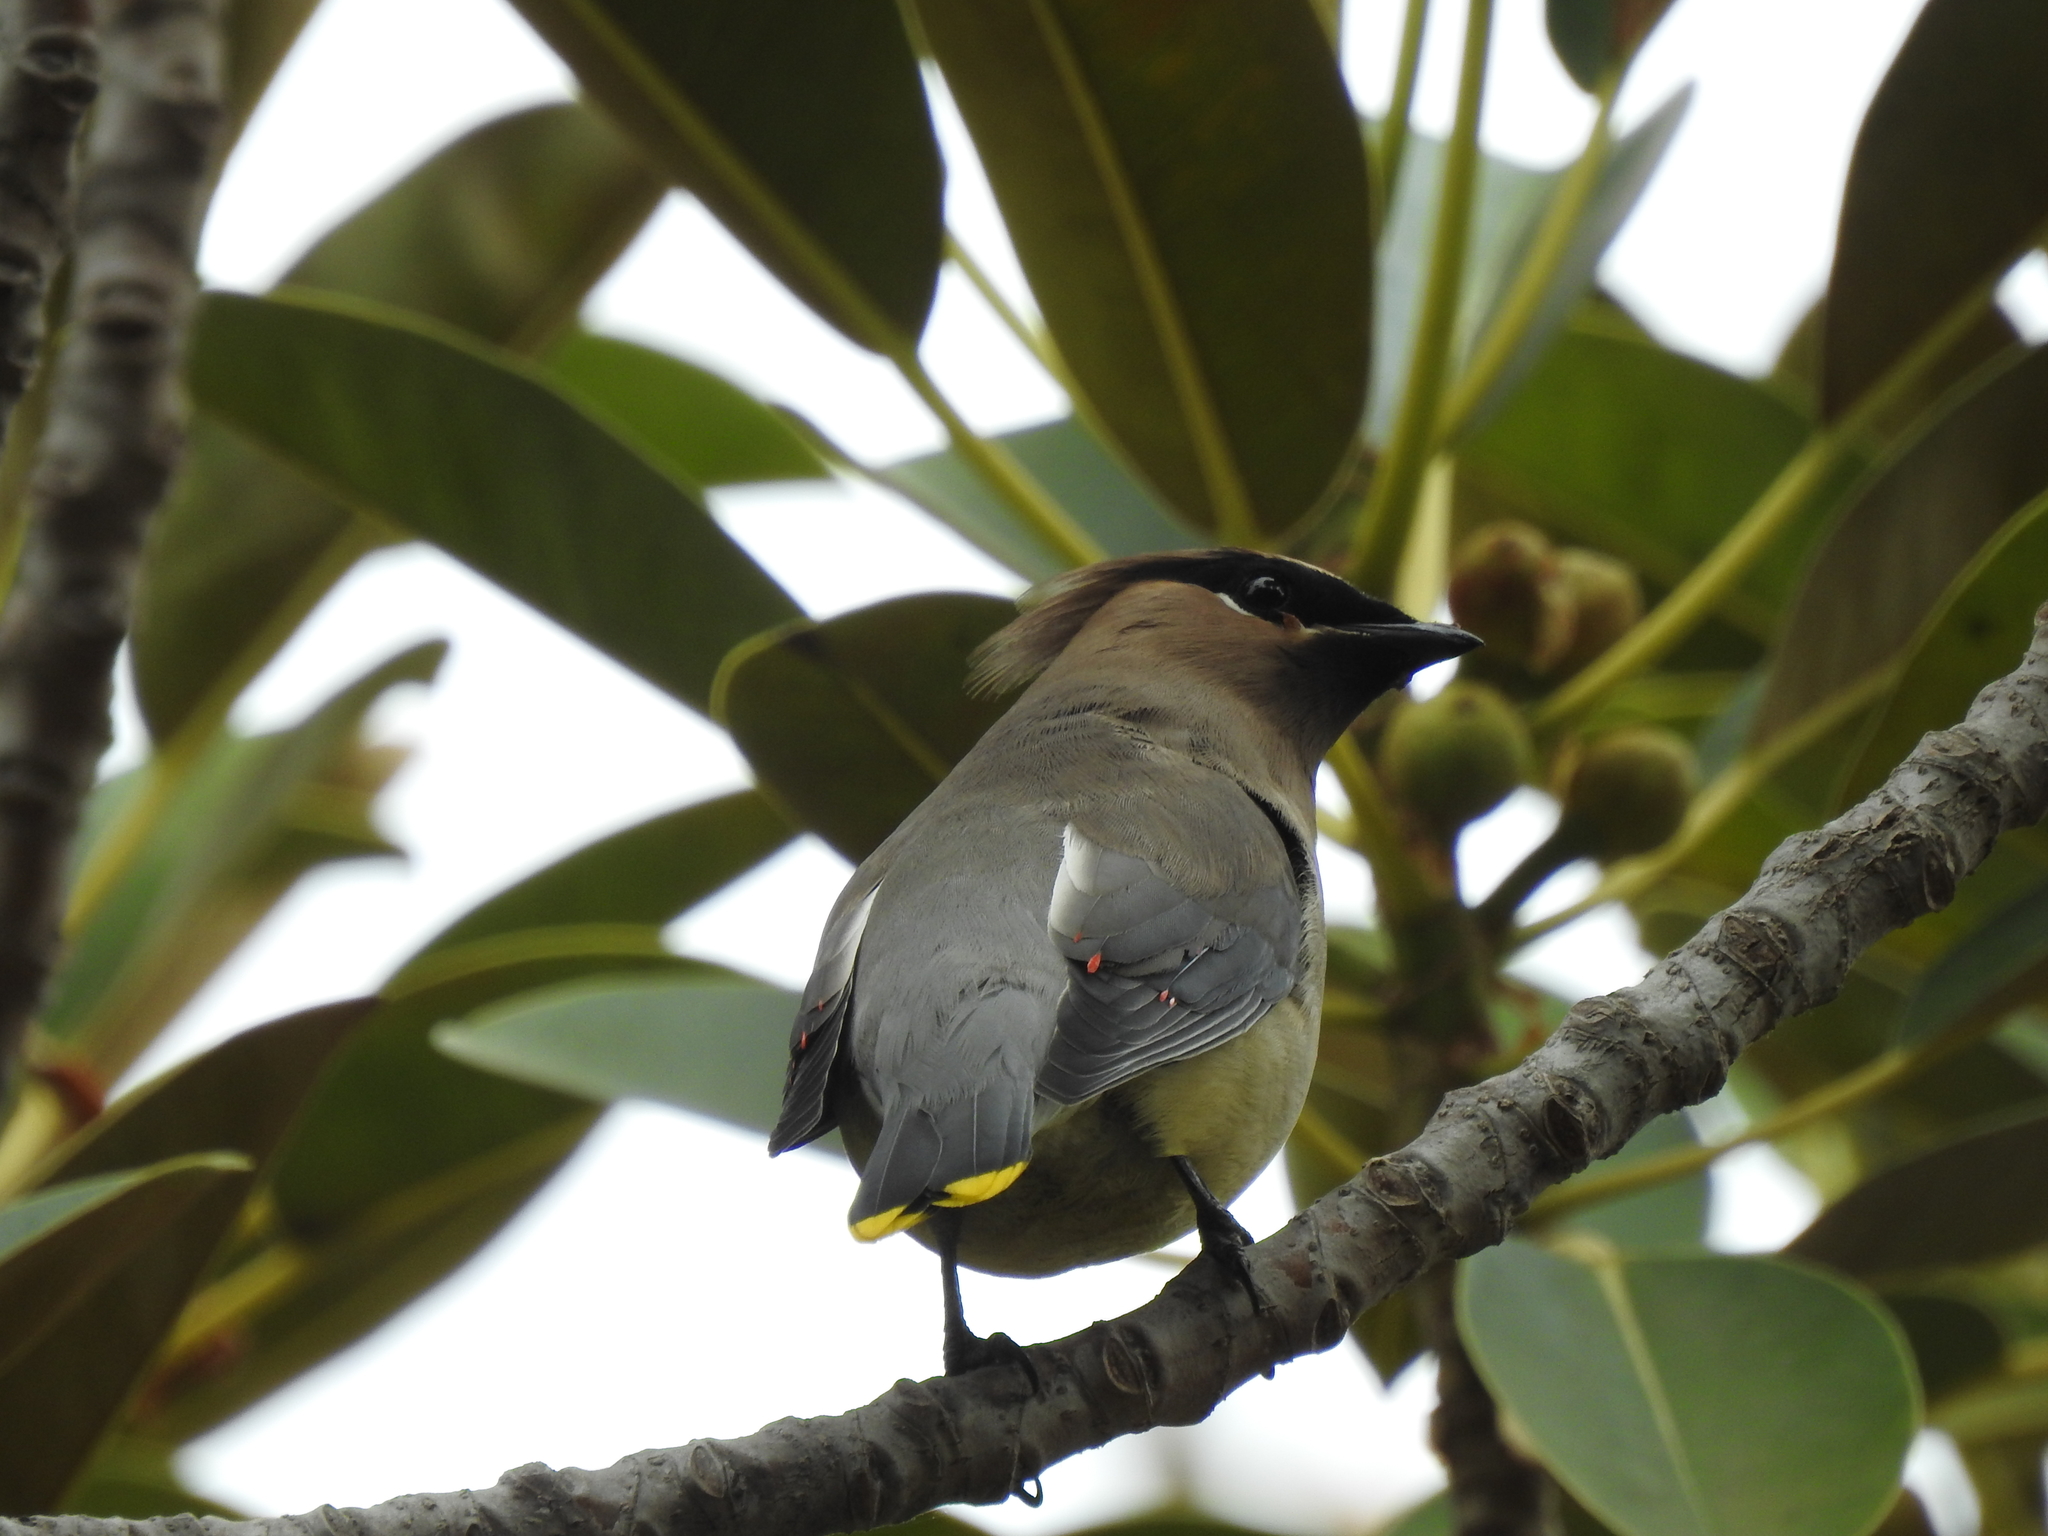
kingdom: Animalia
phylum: Chordata
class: Aves
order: Passeriformes
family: Bombycillidae
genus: Bombycilla
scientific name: Bombycilla cedrorum
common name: Cedar waxwing
